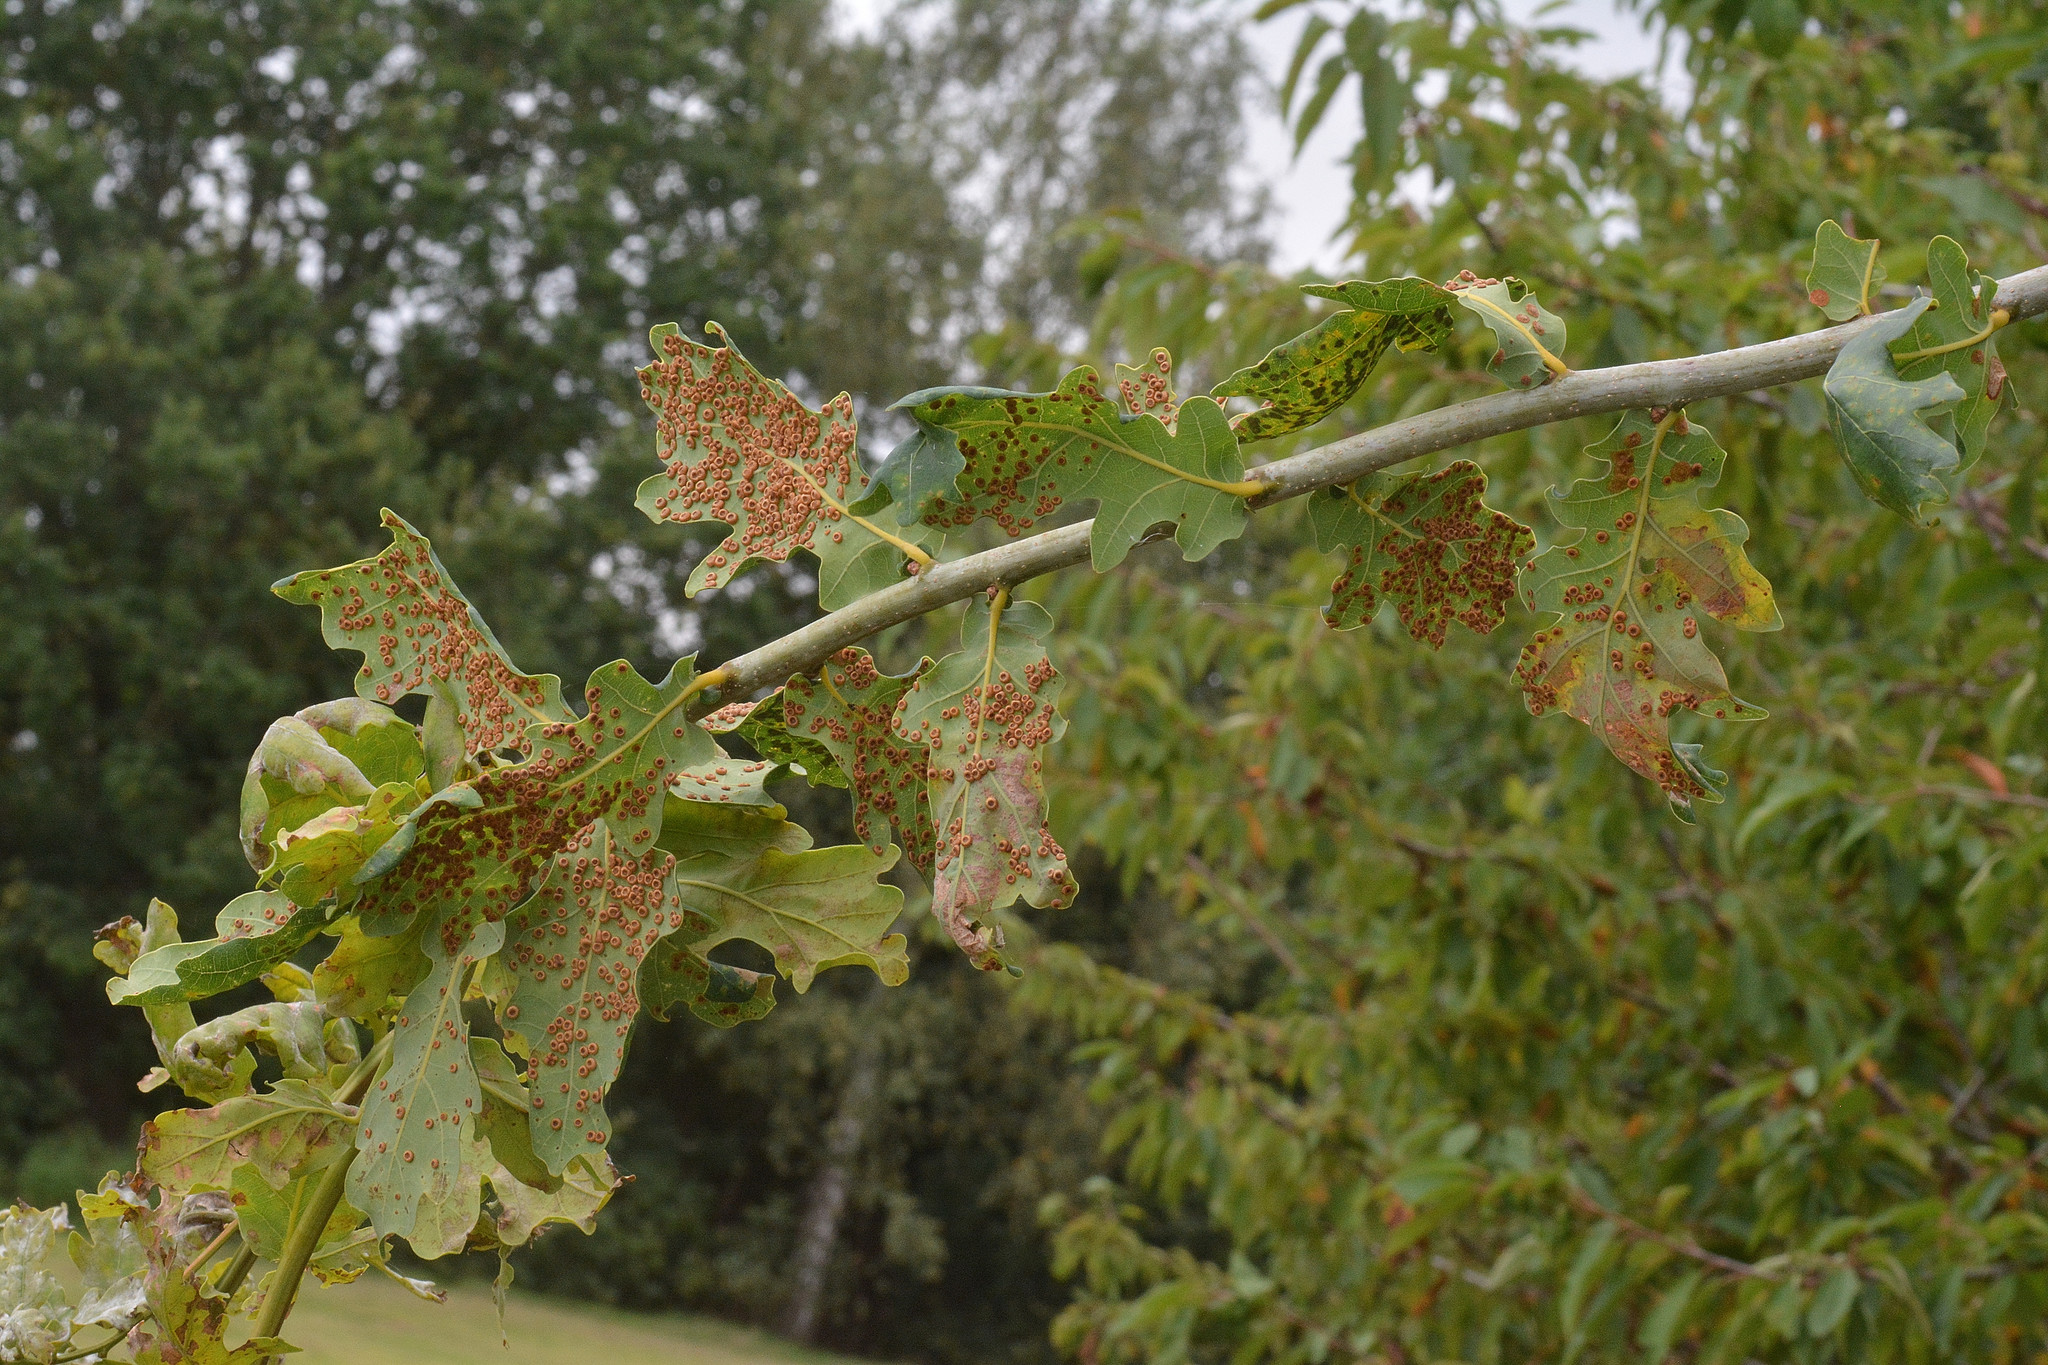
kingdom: Animalia
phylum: Arthropoda
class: Insecta
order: Hymenoptera
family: Cynipidae
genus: Neuroterus
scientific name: Neuroterus numismalis
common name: Silk-button spangle gall
